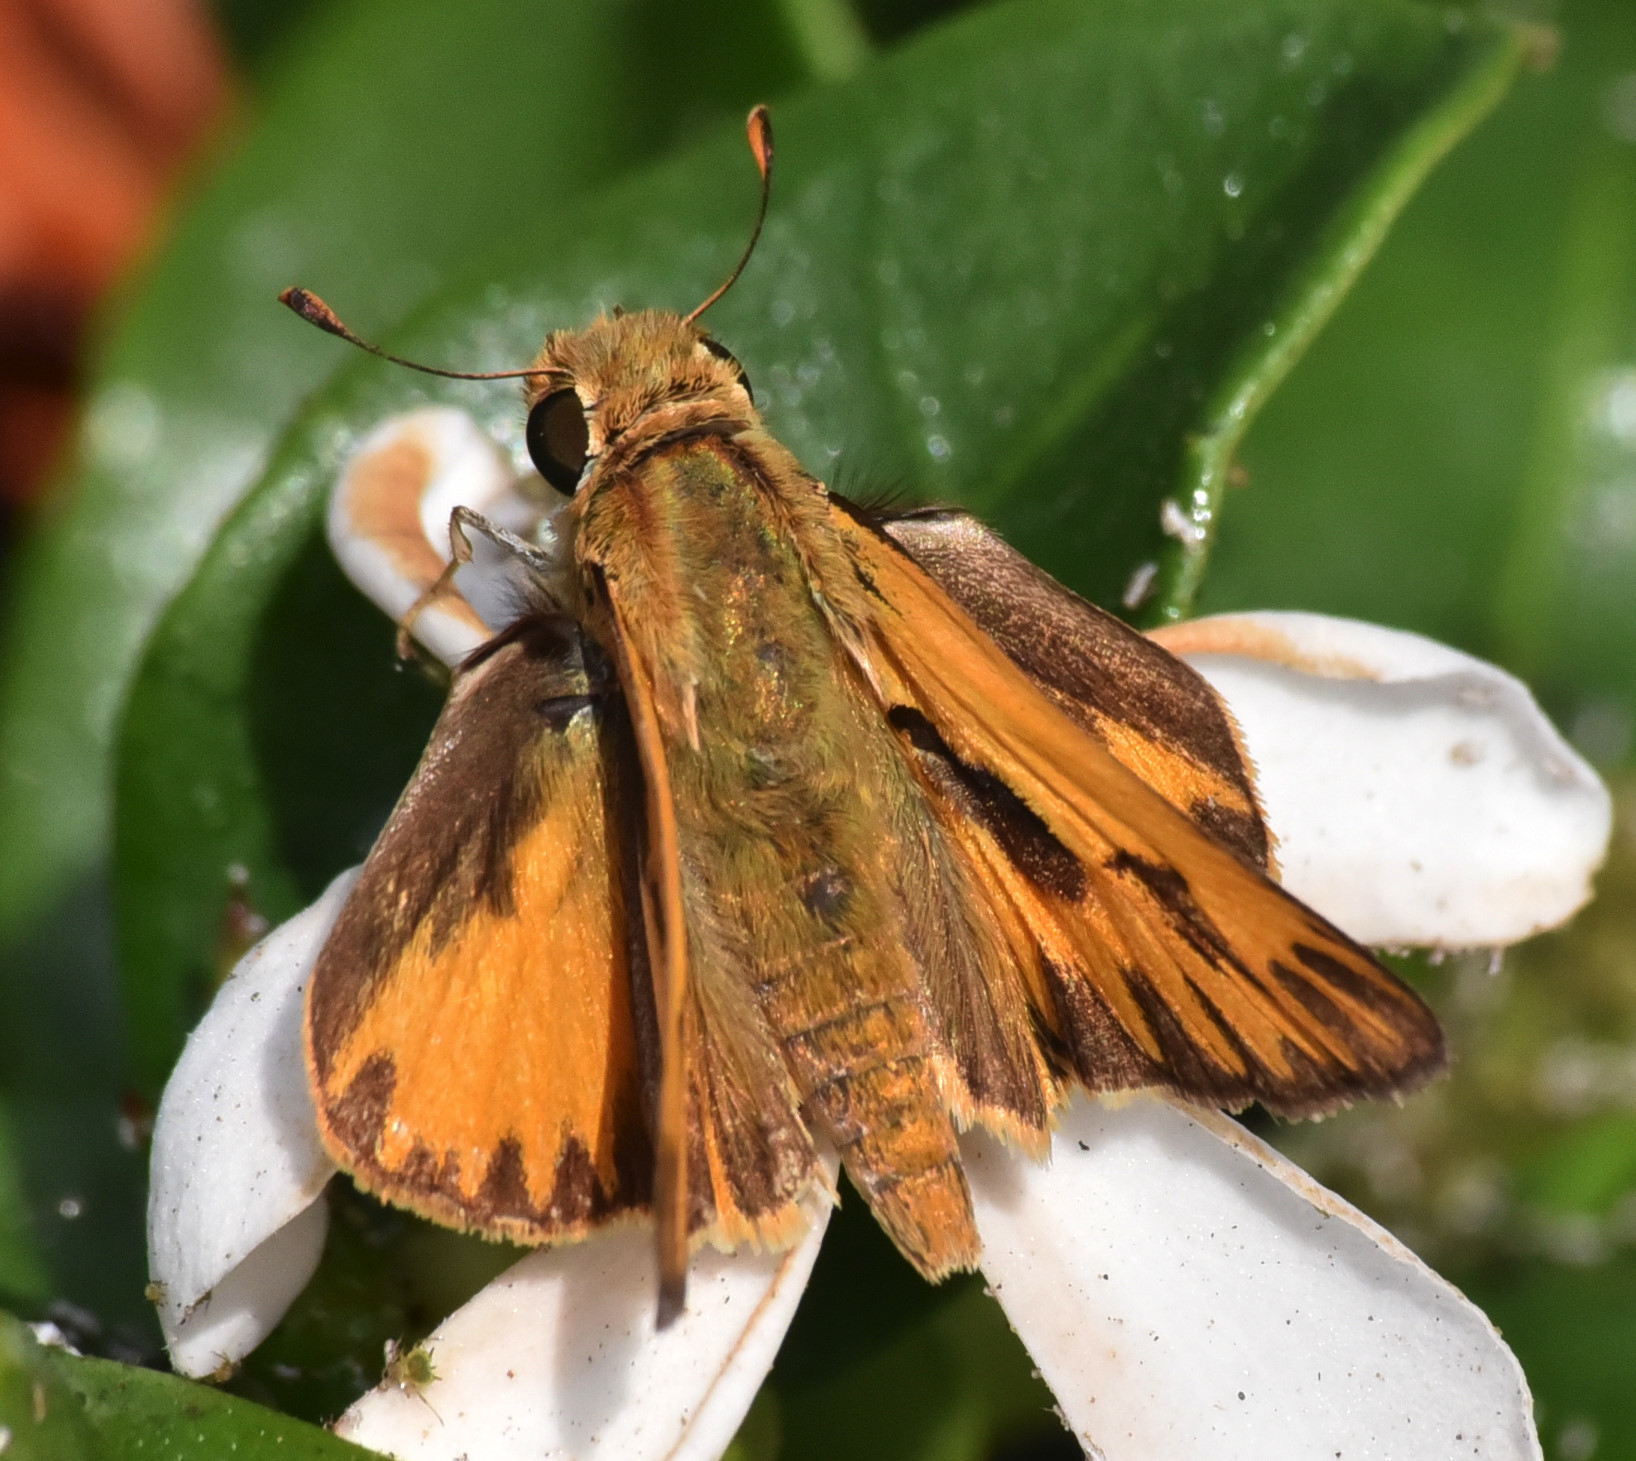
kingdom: Animalia
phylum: Arthropoda
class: Insecta
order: Lepidoptera
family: Hesperiidae
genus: Hylephila
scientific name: Hylephila phyleus
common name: Fiery skipper
